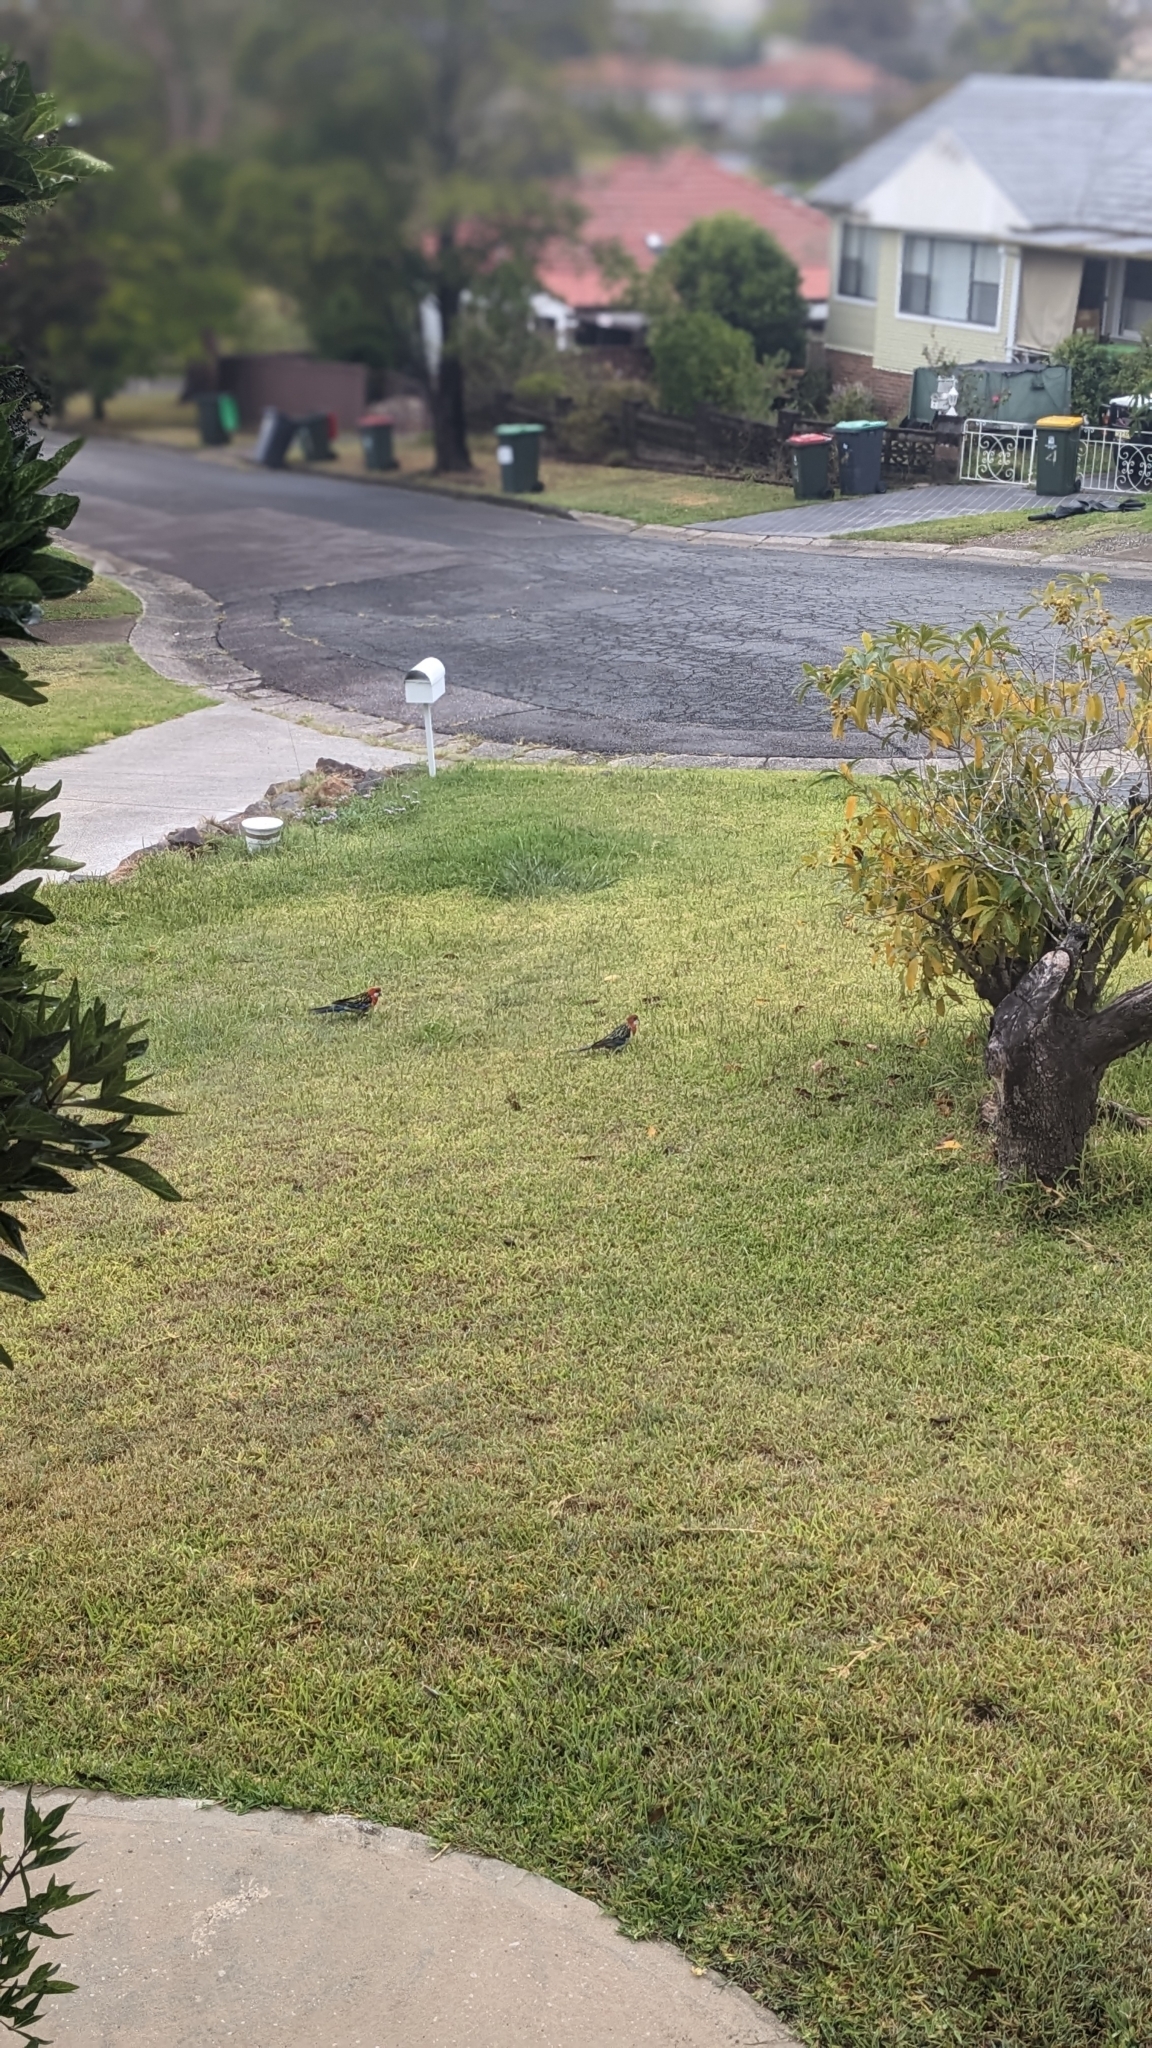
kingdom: Animalia
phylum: Chordata
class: Aves
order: Psittaciformes
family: Psittacidae
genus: Platycercus
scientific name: Platycercus eximius
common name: Eastern rosella
